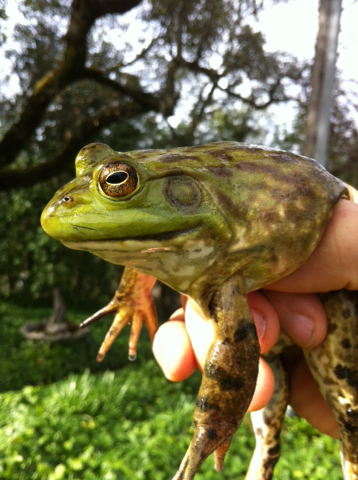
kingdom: Animalia
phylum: Chordata
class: Amphibia
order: Anura
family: Ranidae
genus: Lithobates
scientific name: Lithobates catesbeianus
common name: American bullfrog
